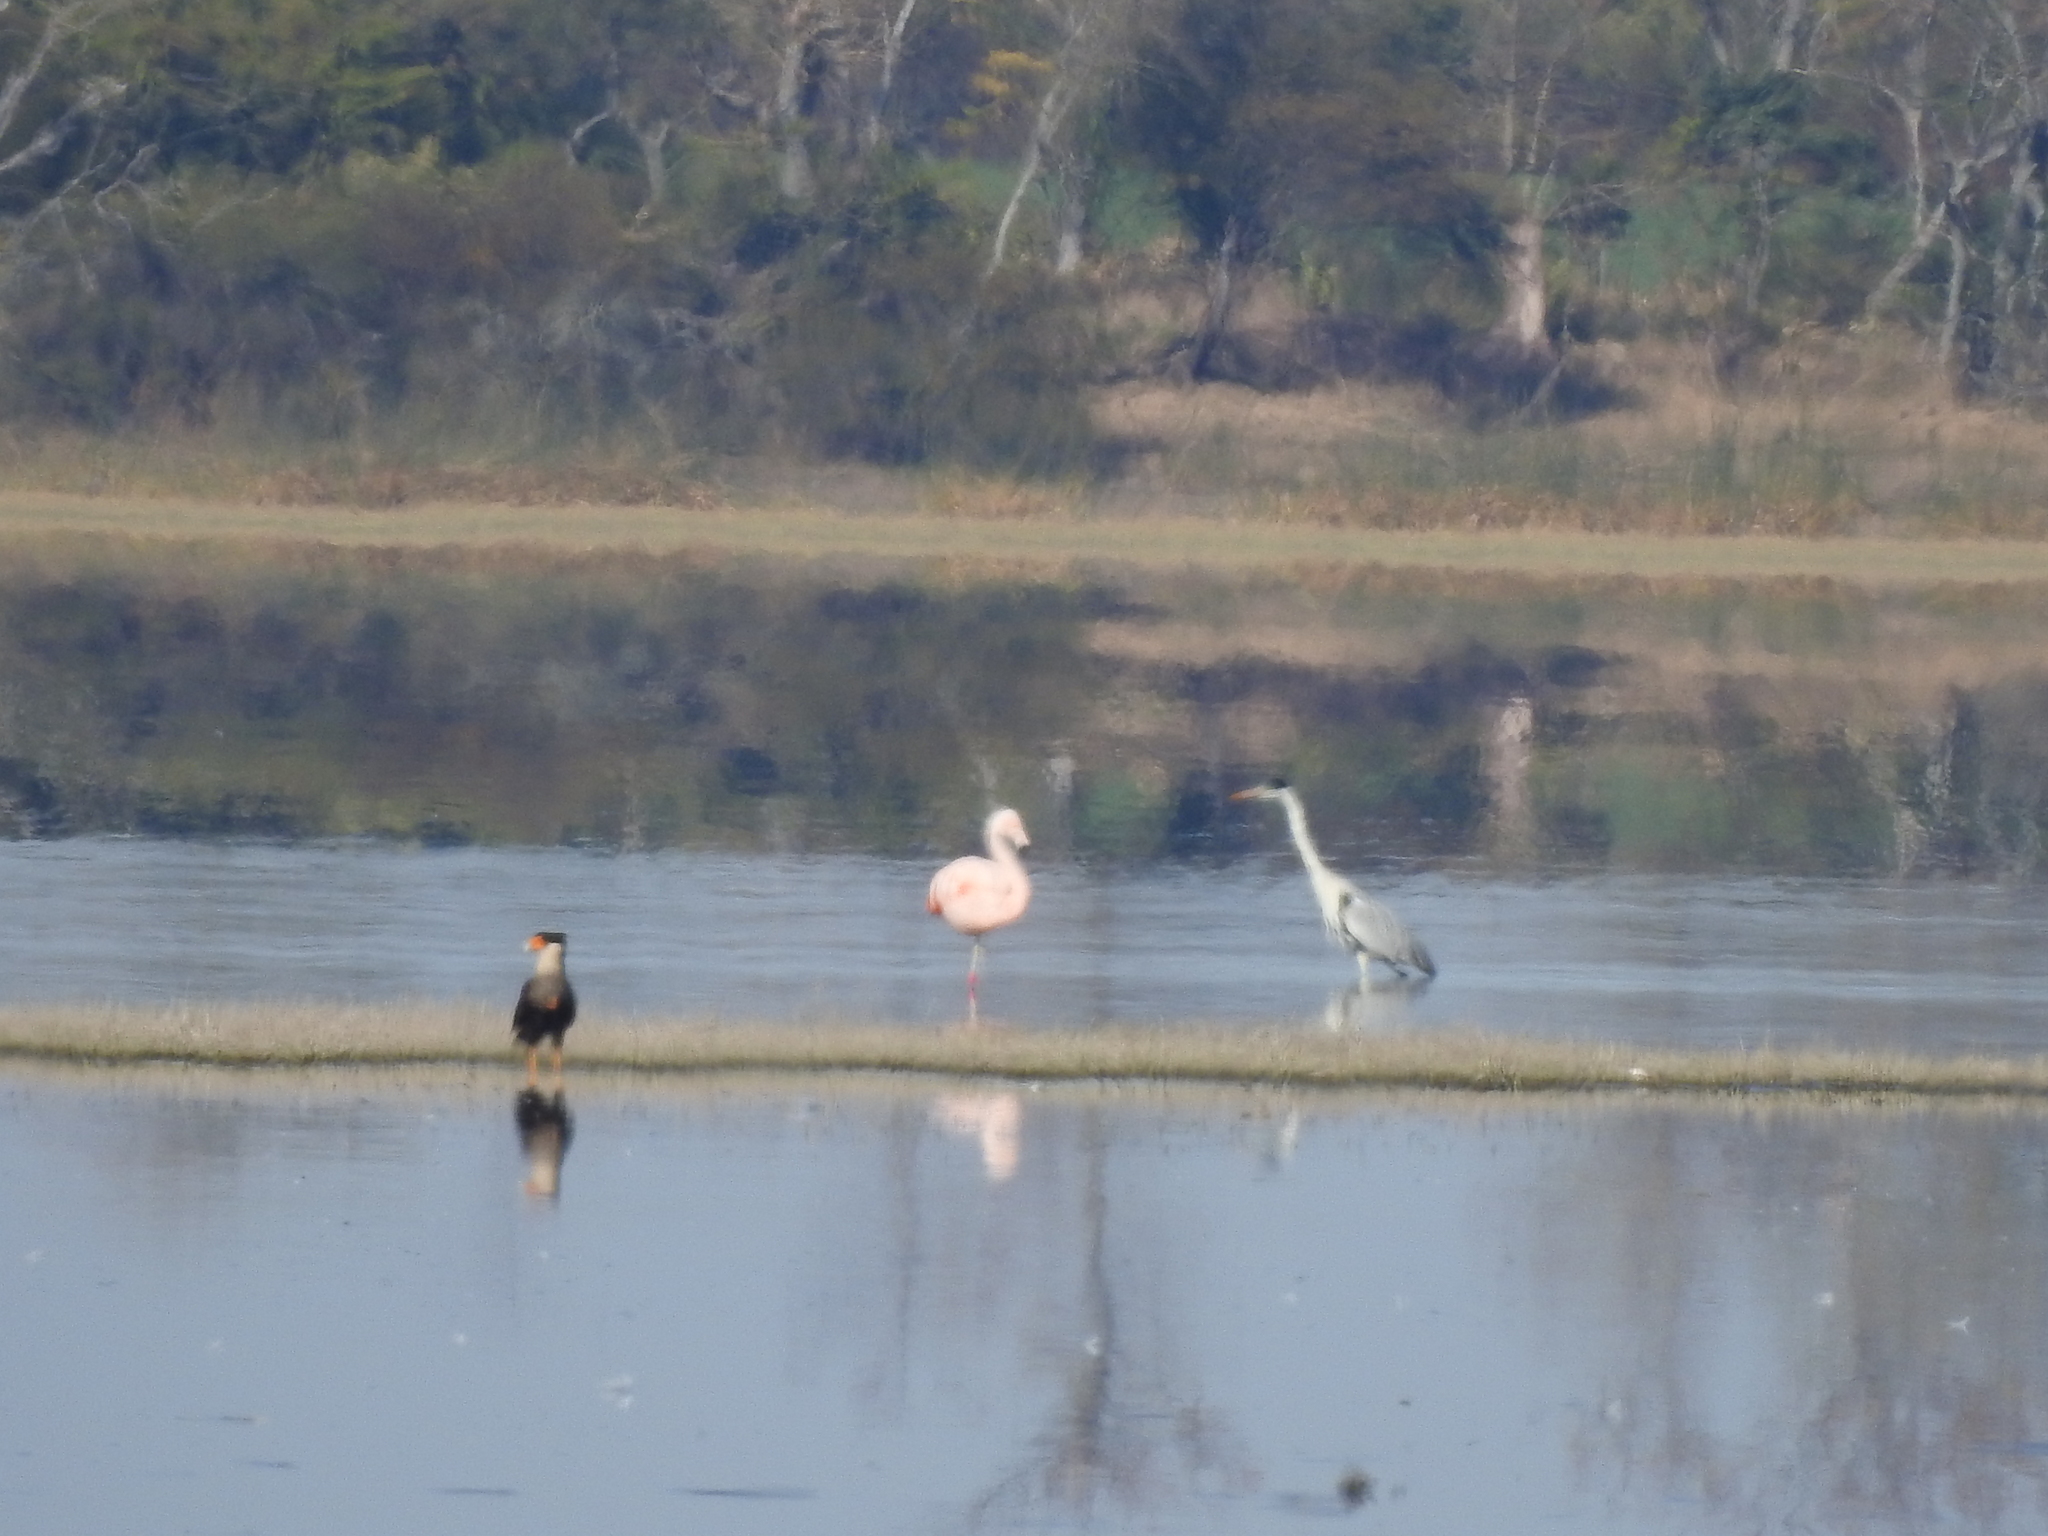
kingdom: Animalia
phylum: Chordata
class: Aves
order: Falconiformes
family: Falconidae
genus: Caracara
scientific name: Caracara plancus
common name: Southern caracara
